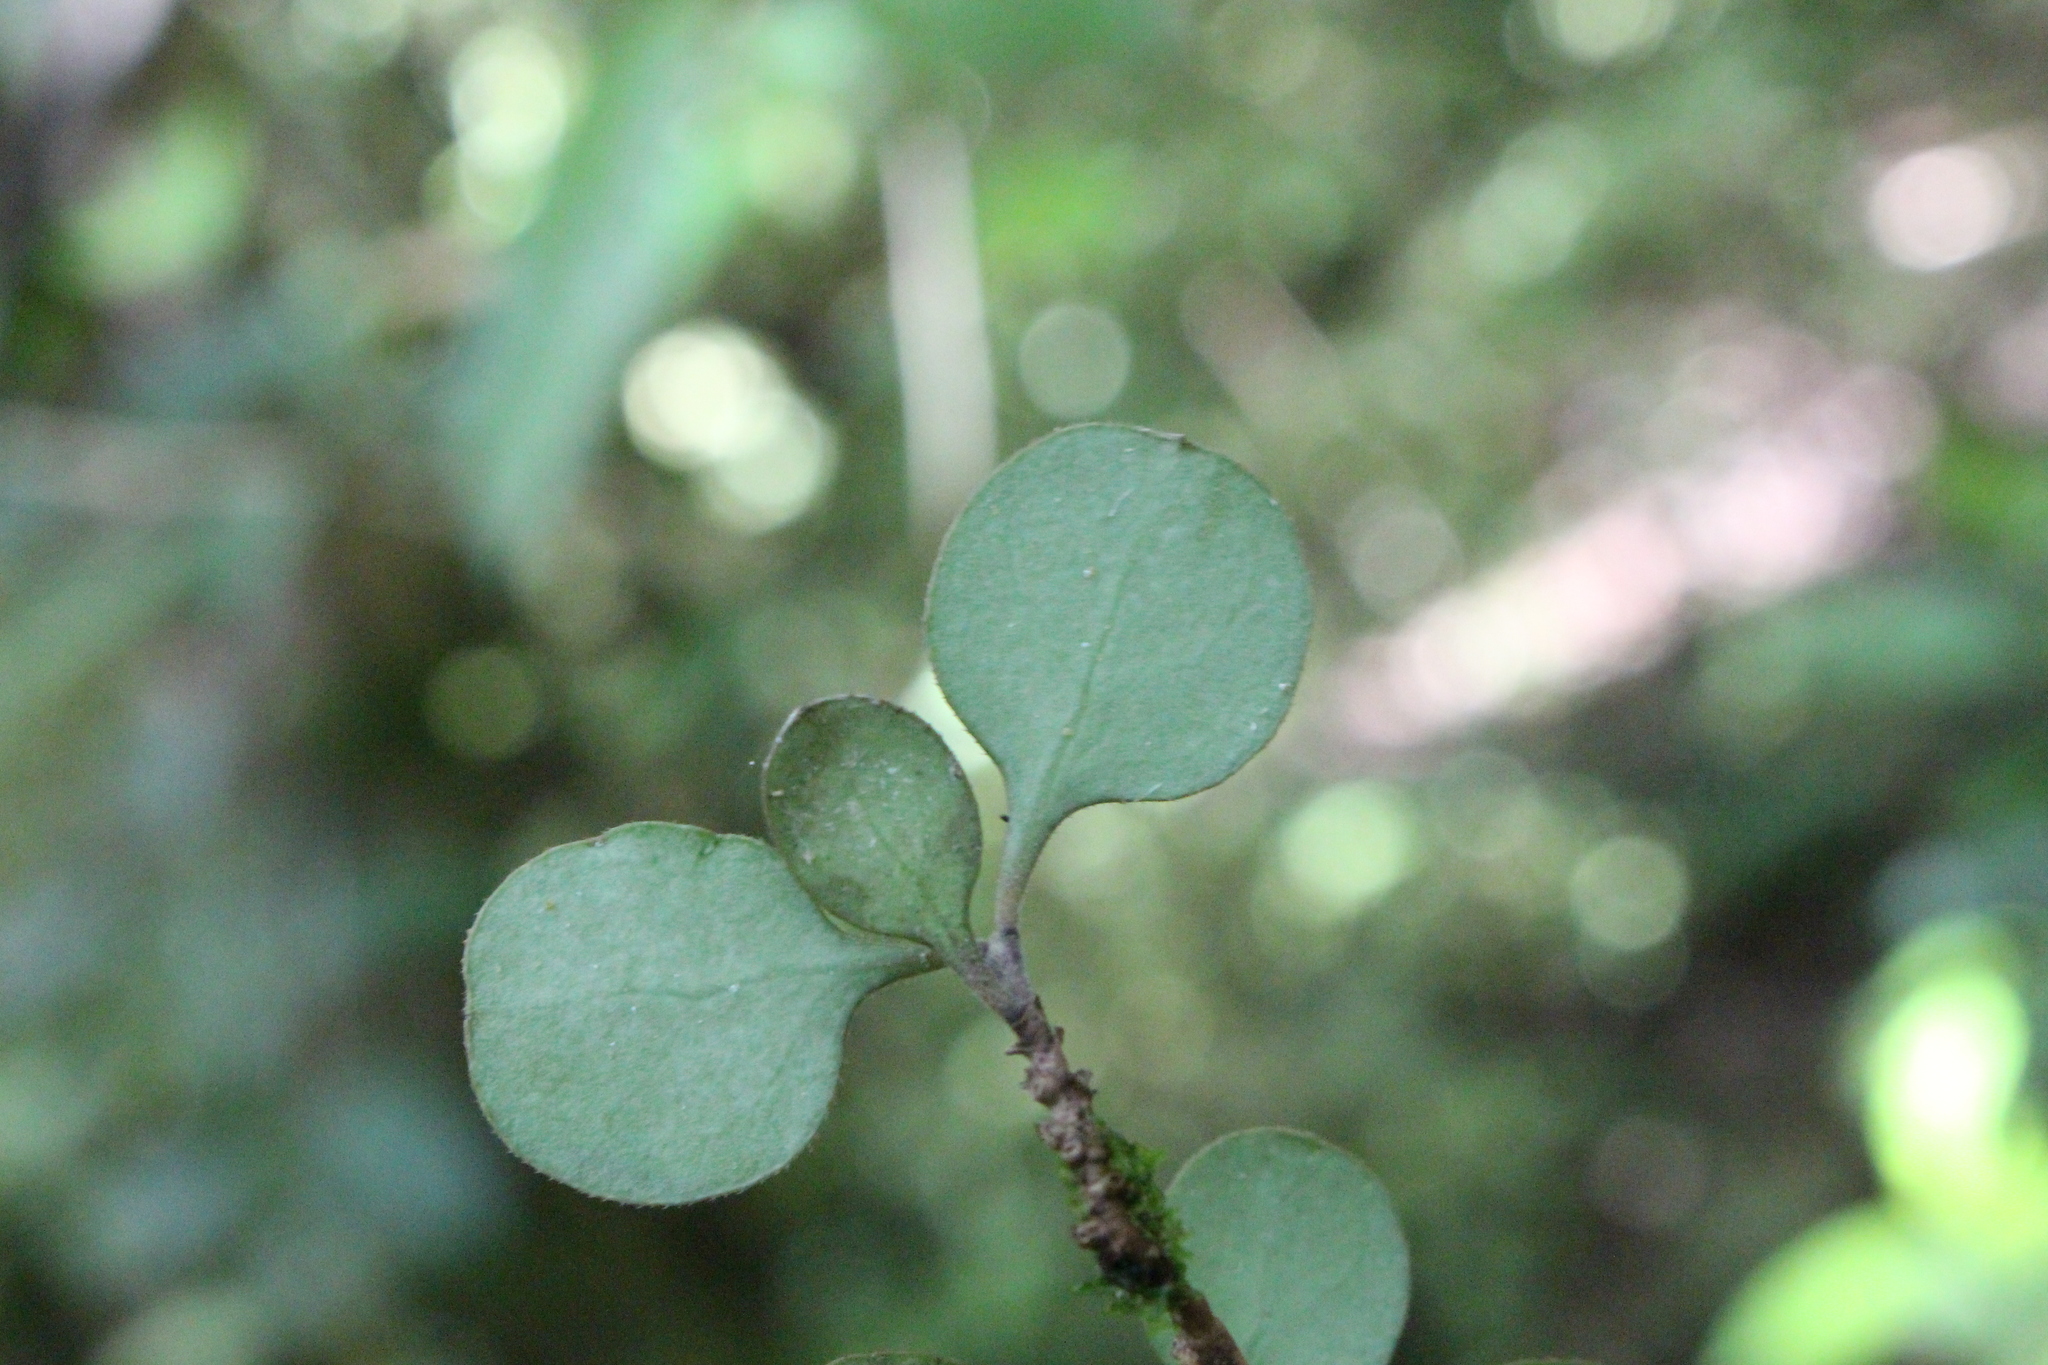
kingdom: Plantae
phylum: Tracheophyta
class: Magnoliopsida
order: Gentianales
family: Rubiaceae
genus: Coprosma
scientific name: Coprosma crassifolia
